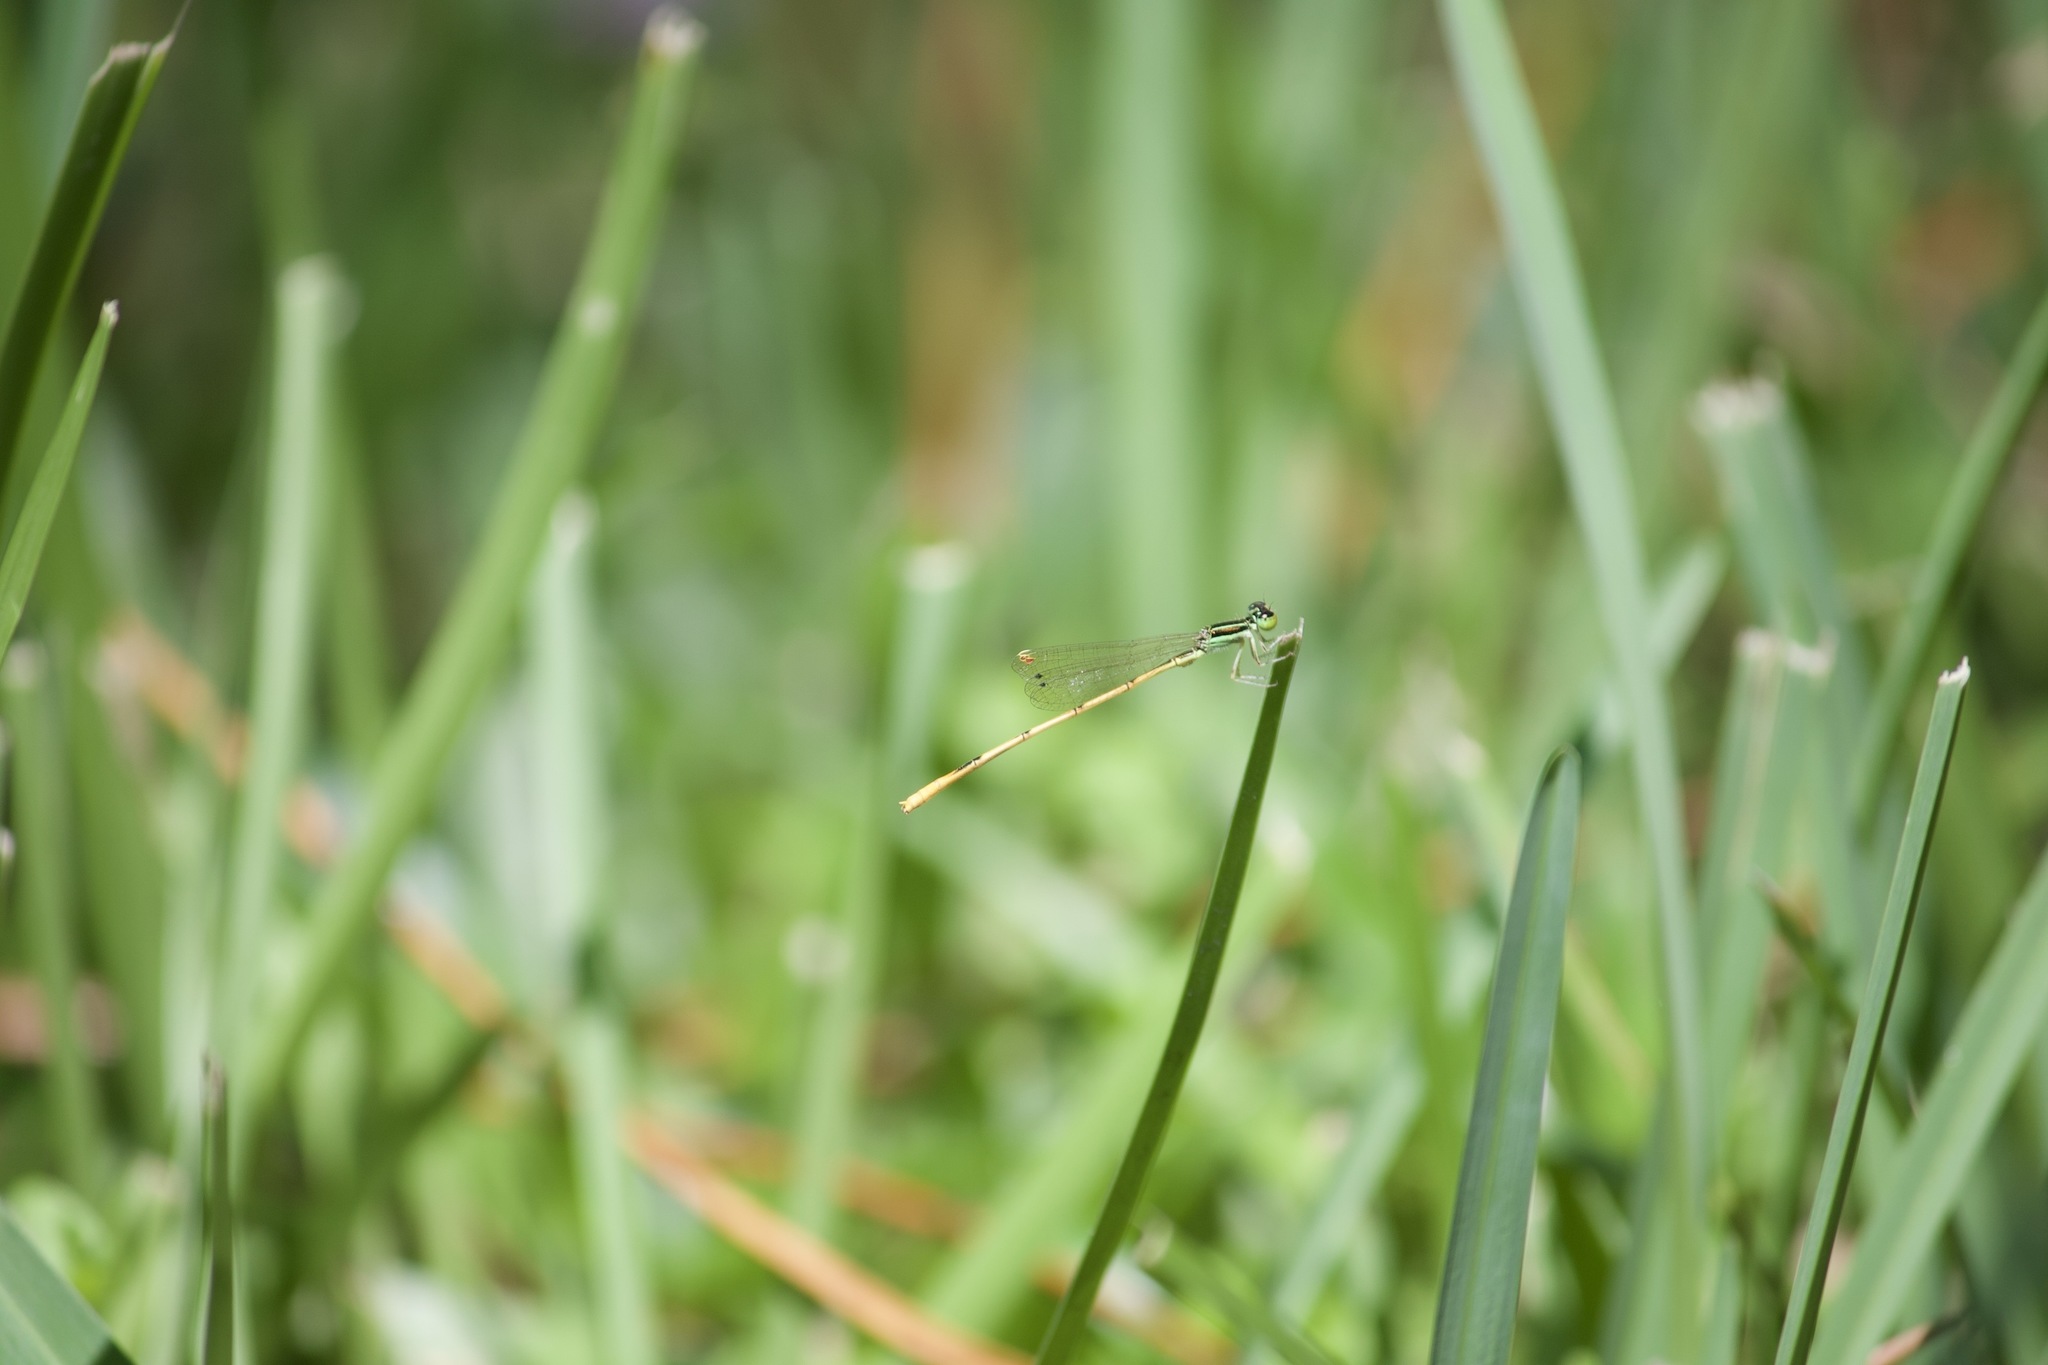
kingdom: Animalia
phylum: Arthropoda
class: Insecta
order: Odonata
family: Coenagrionidae
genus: Ischnura
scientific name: Ischnura hastata
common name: Citrine forktail
